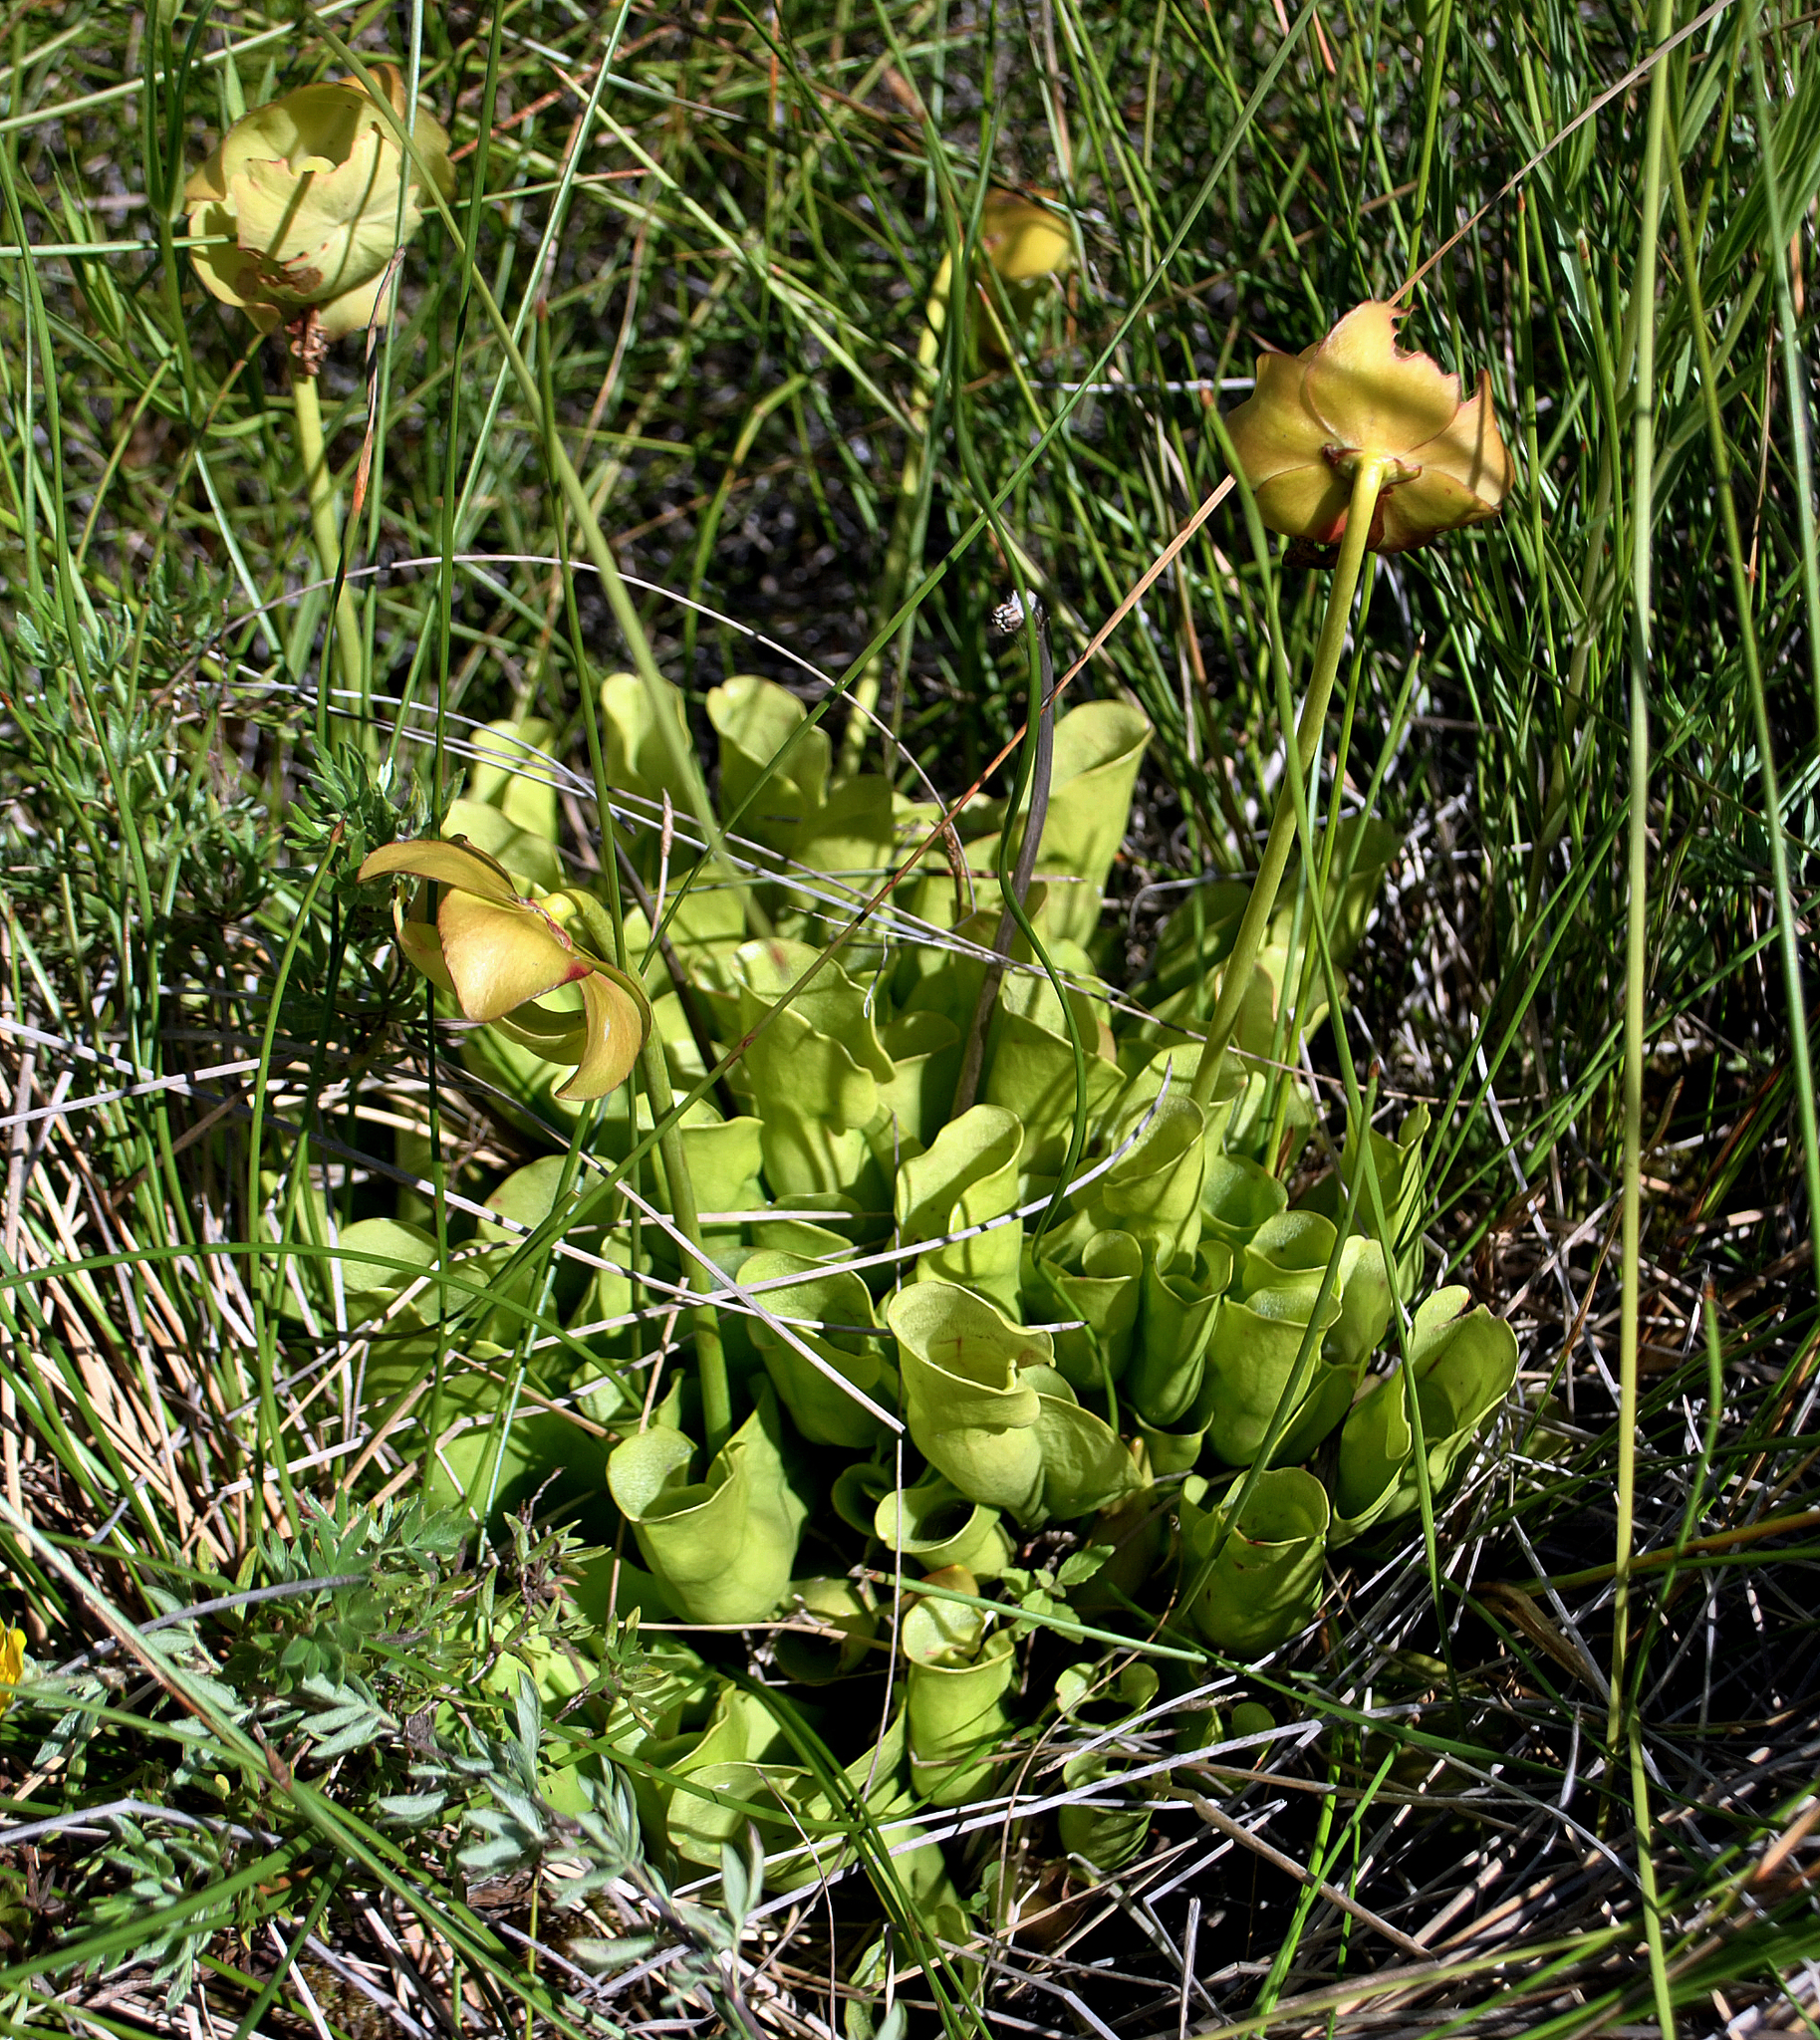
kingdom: Plantae
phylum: Tracheophyta
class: Magnoliopsida
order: Ericales
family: Sarraceniaceae
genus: Sarracenia
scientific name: Sarracenia purpurea
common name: Pitcherplant
